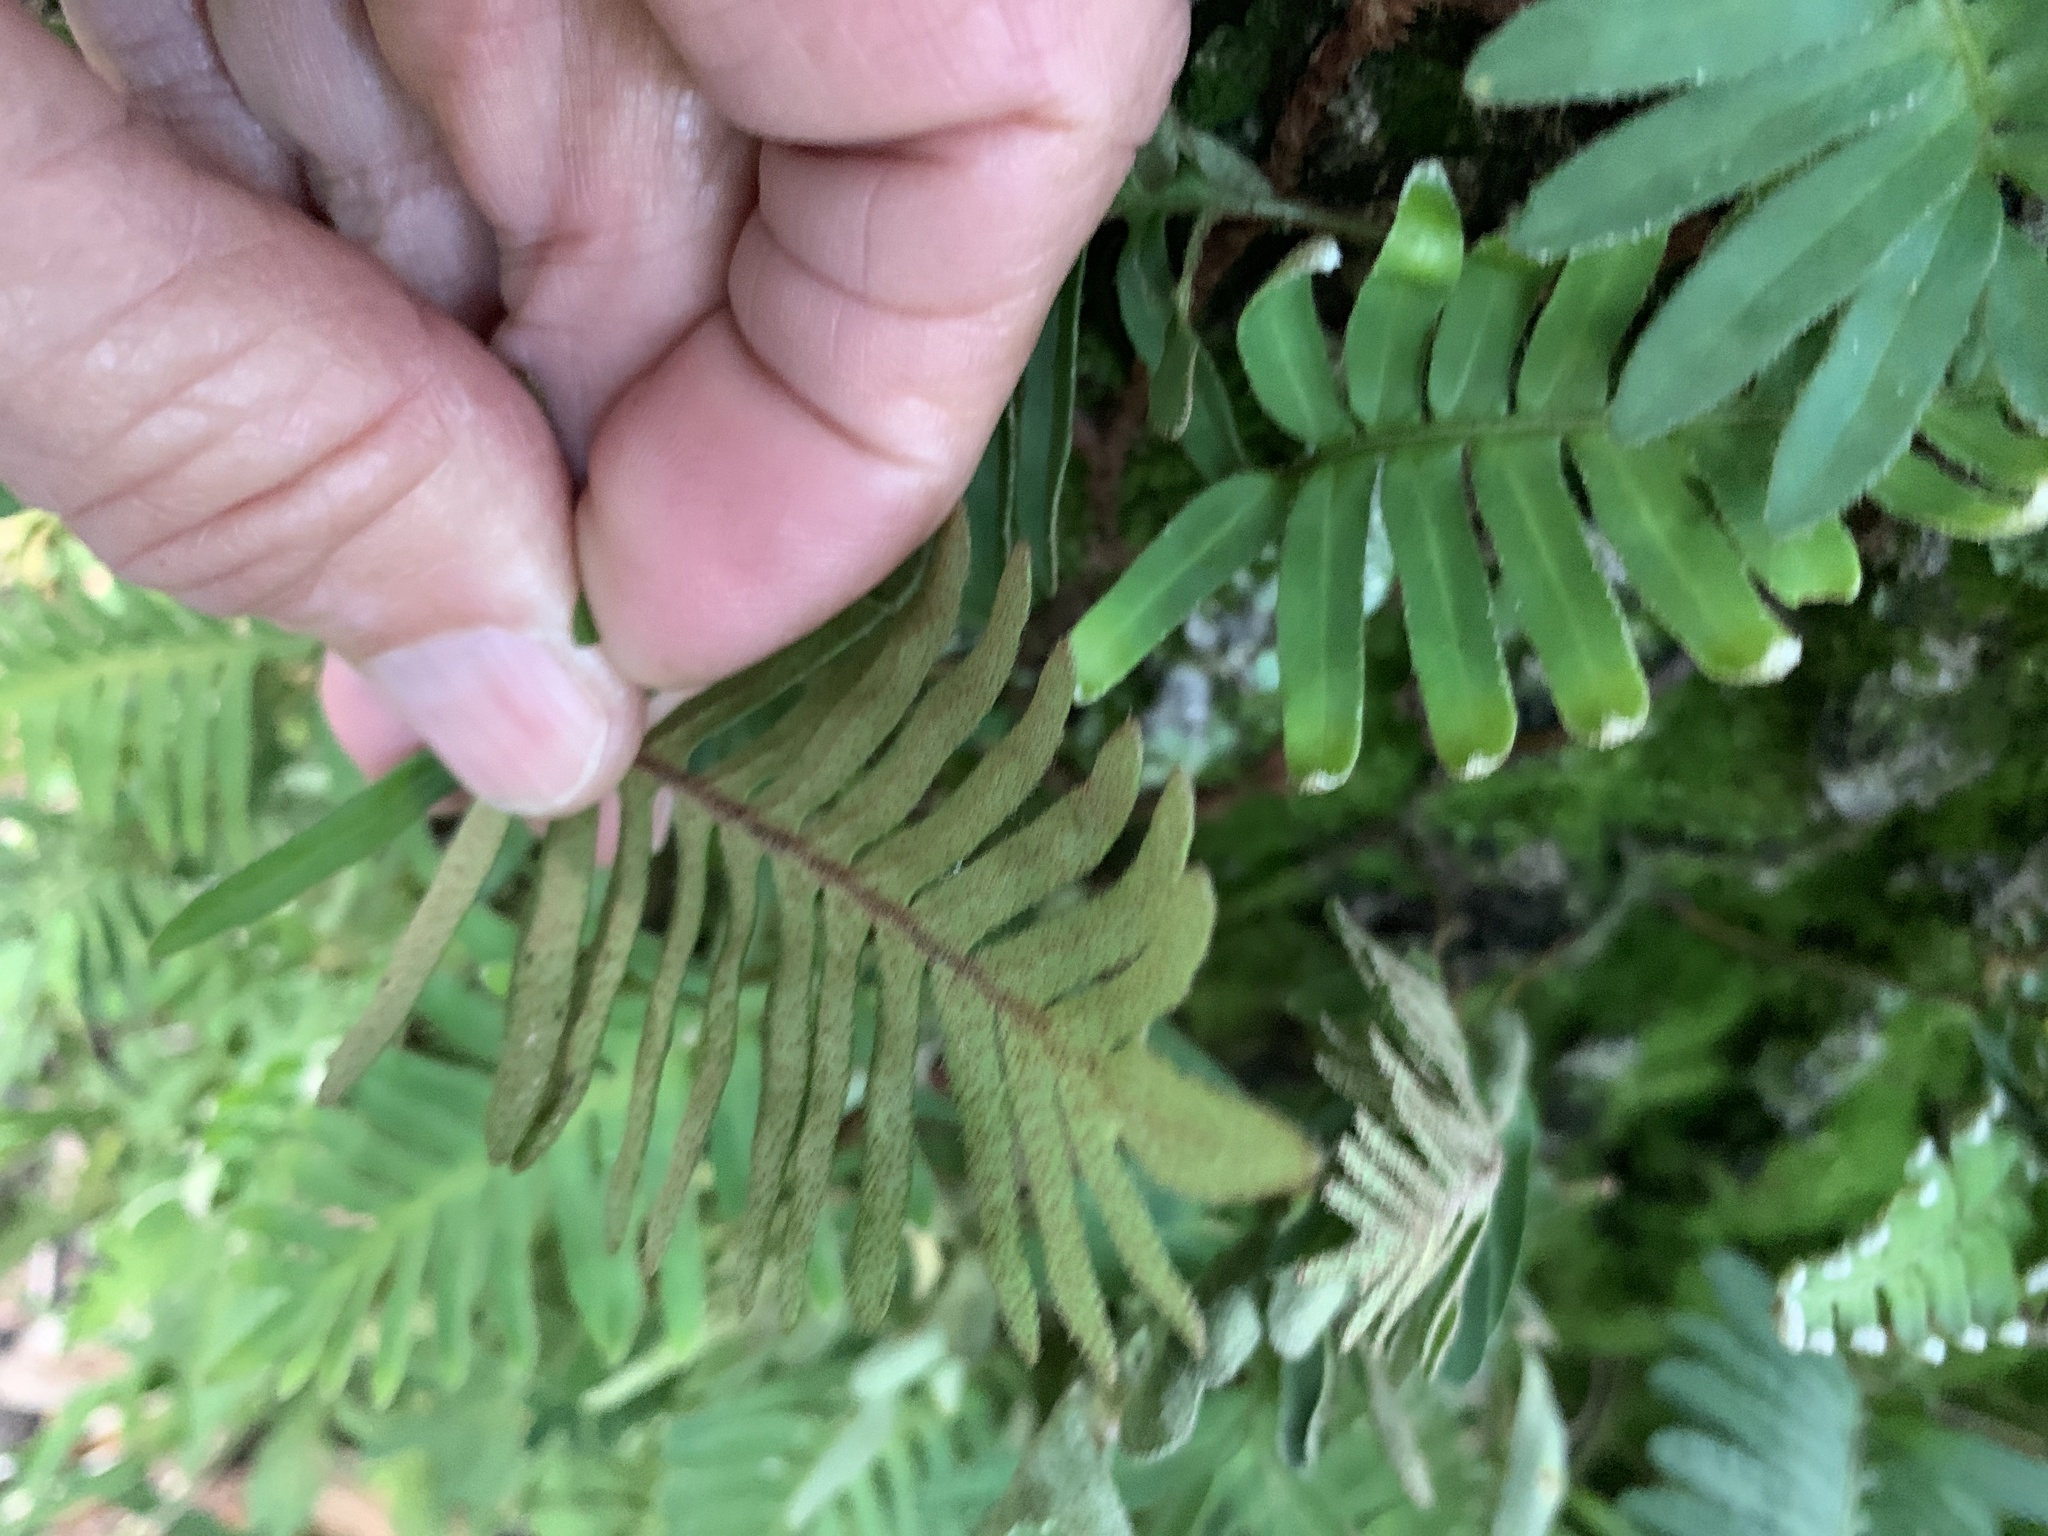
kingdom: Plantae
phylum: Tracheophyta
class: Polypodiopsida
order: Polypodiales
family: Polypodiaceae
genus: Pleopeltis
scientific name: Pleopeltis michauxiana
